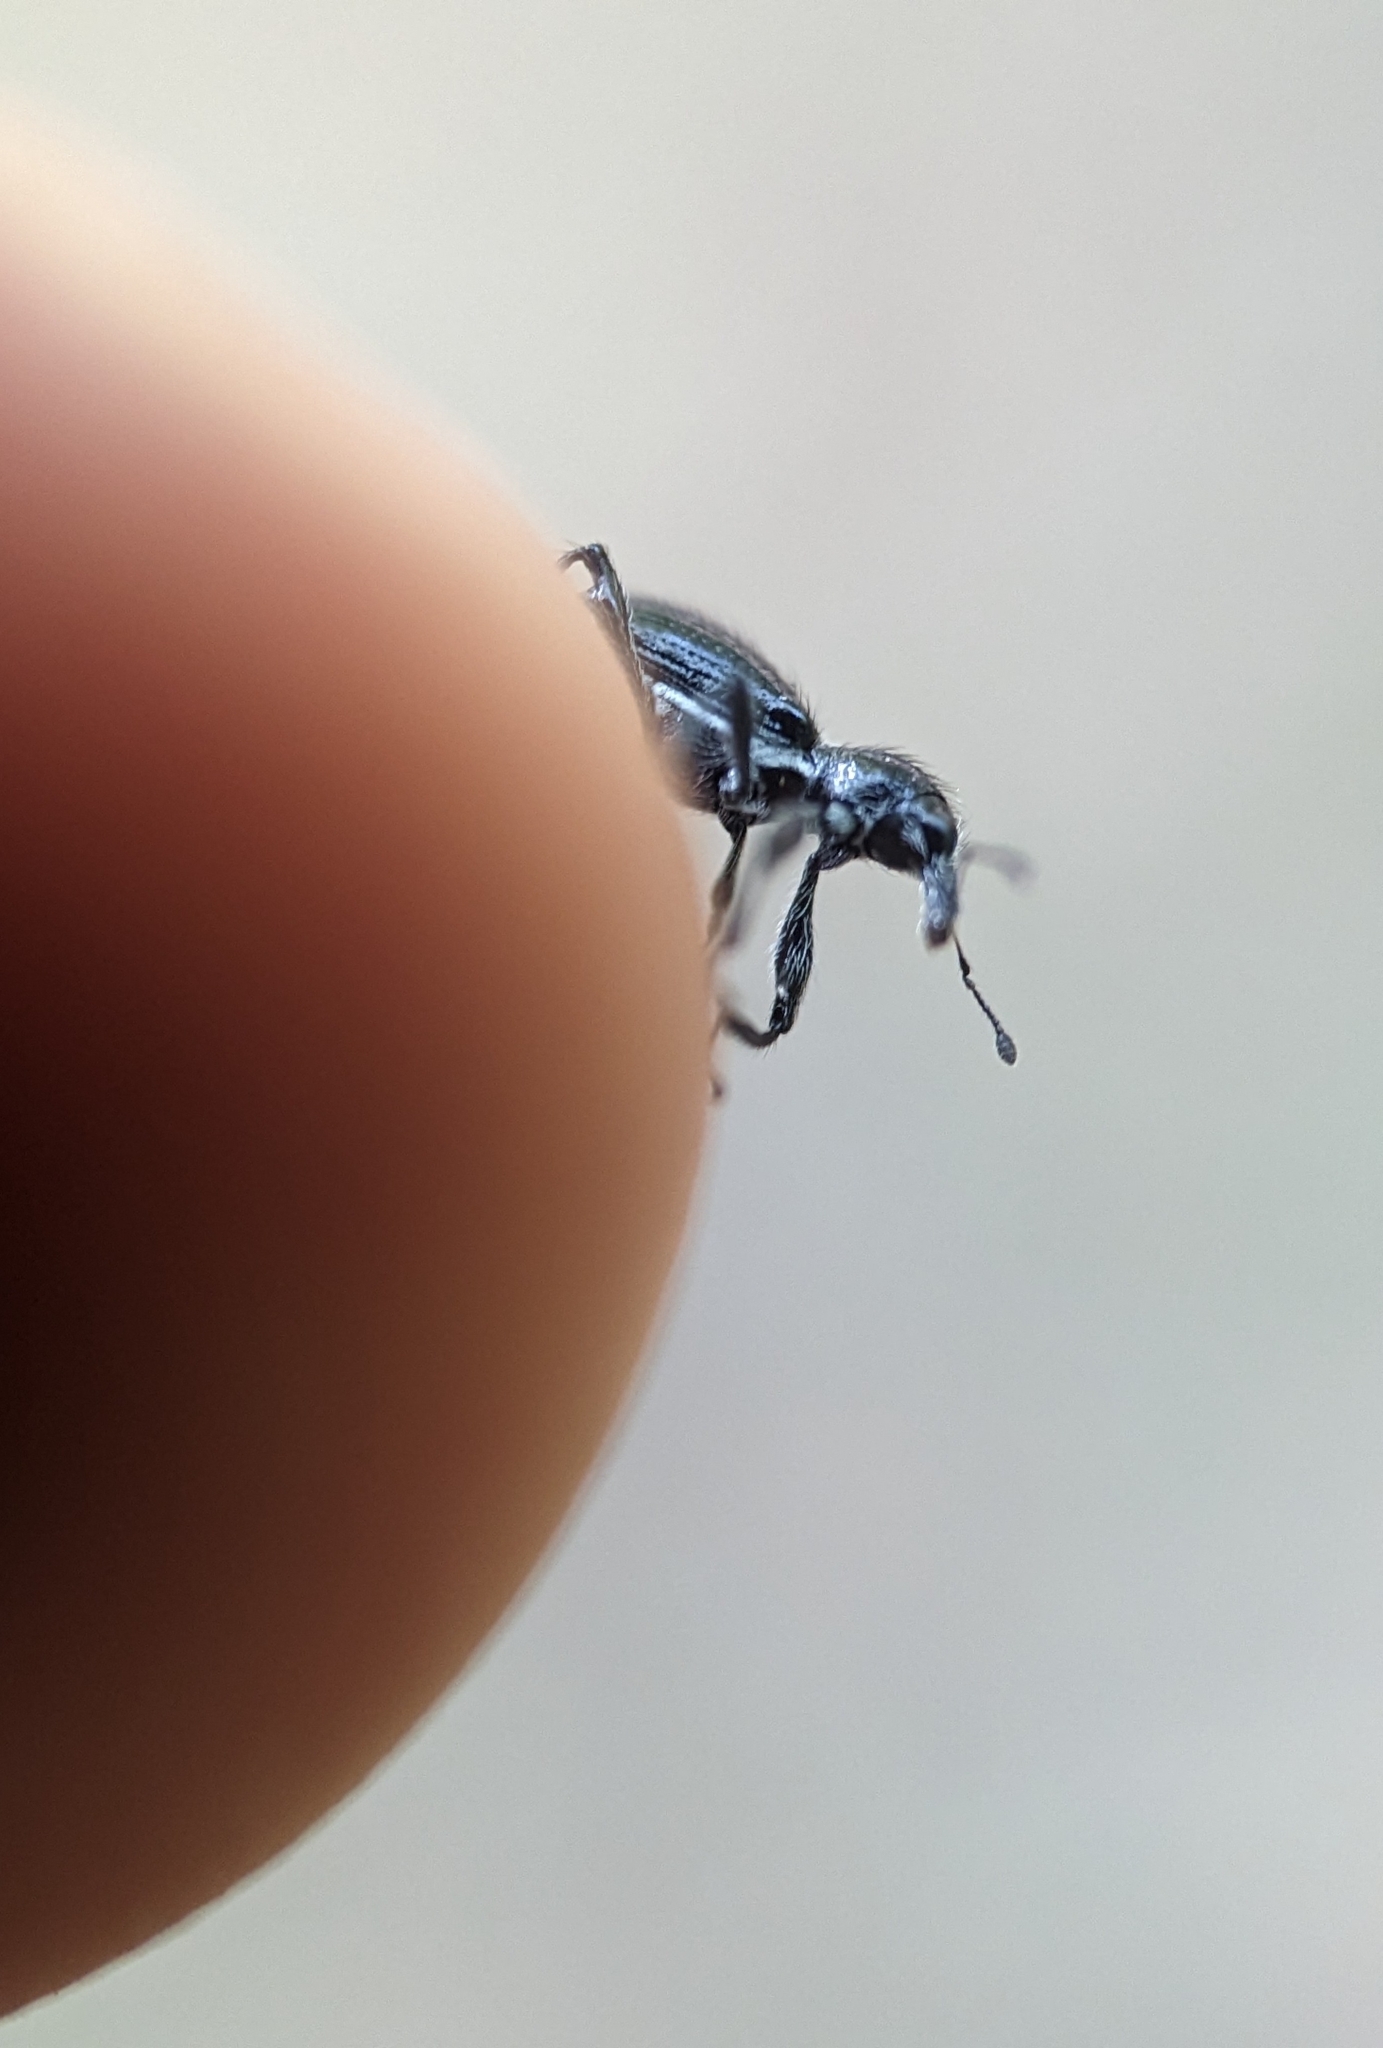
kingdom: Animalia
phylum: Arthropoda
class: Insecta
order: Coleoptera
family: Curculionidae
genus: Myrmex
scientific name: Myrmex myrmex
